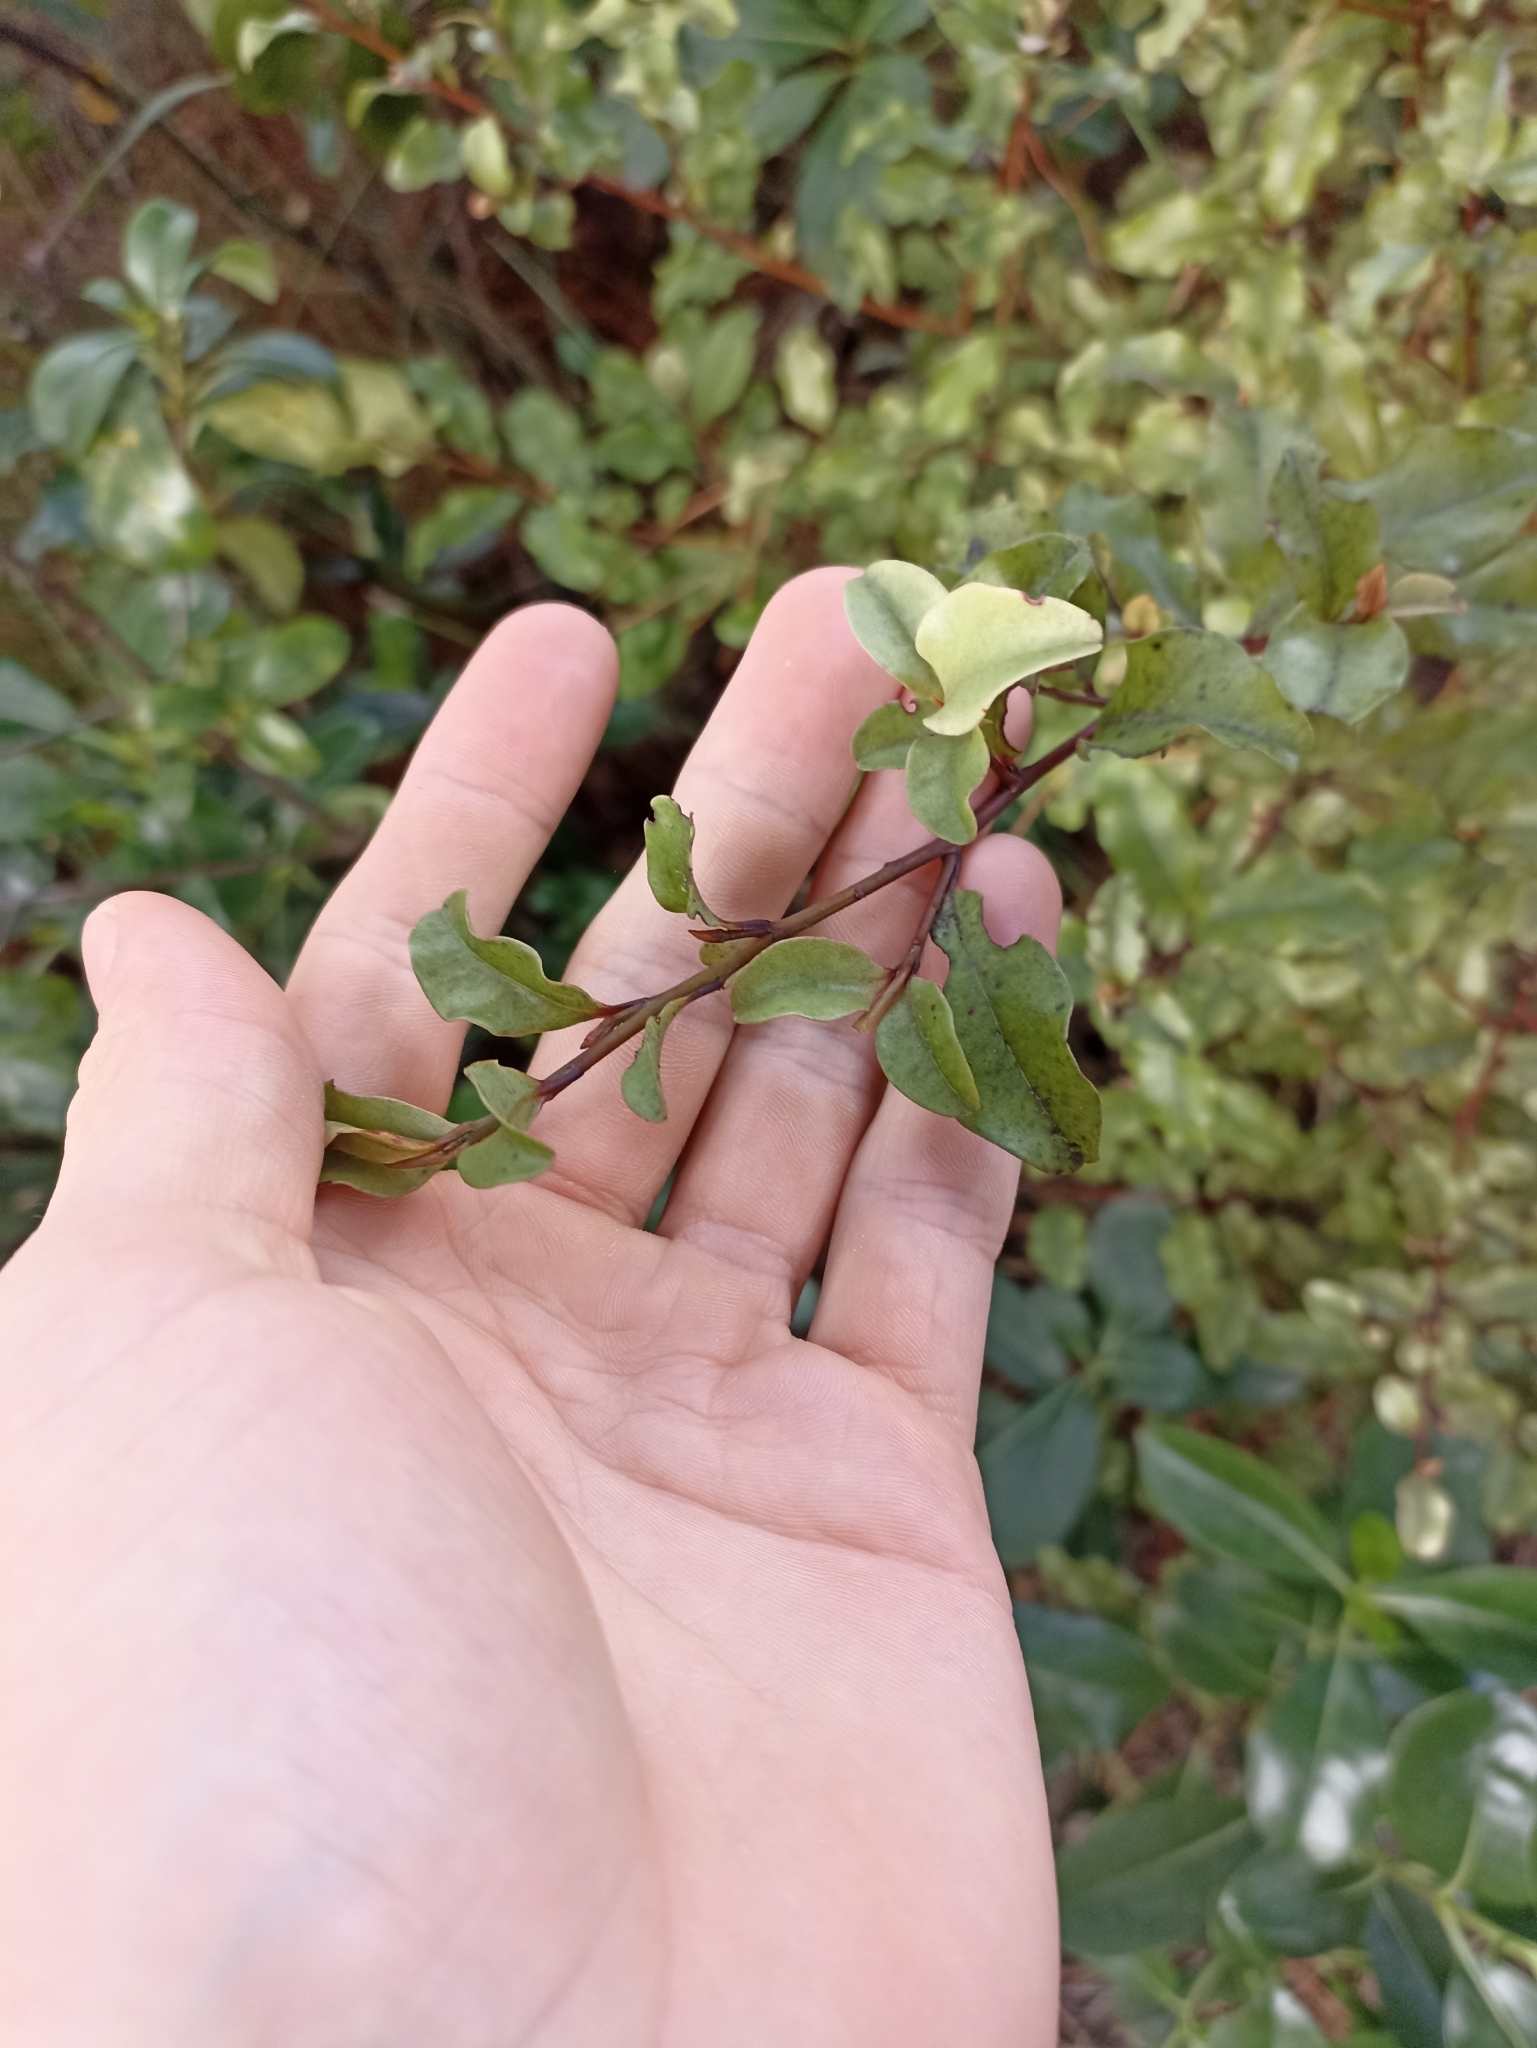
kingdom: Plantae
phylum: Tracheophyta
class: Magnoliopsida
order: Ericales
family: Primulaceae
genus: Myrsine
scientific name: Myrsine australis
